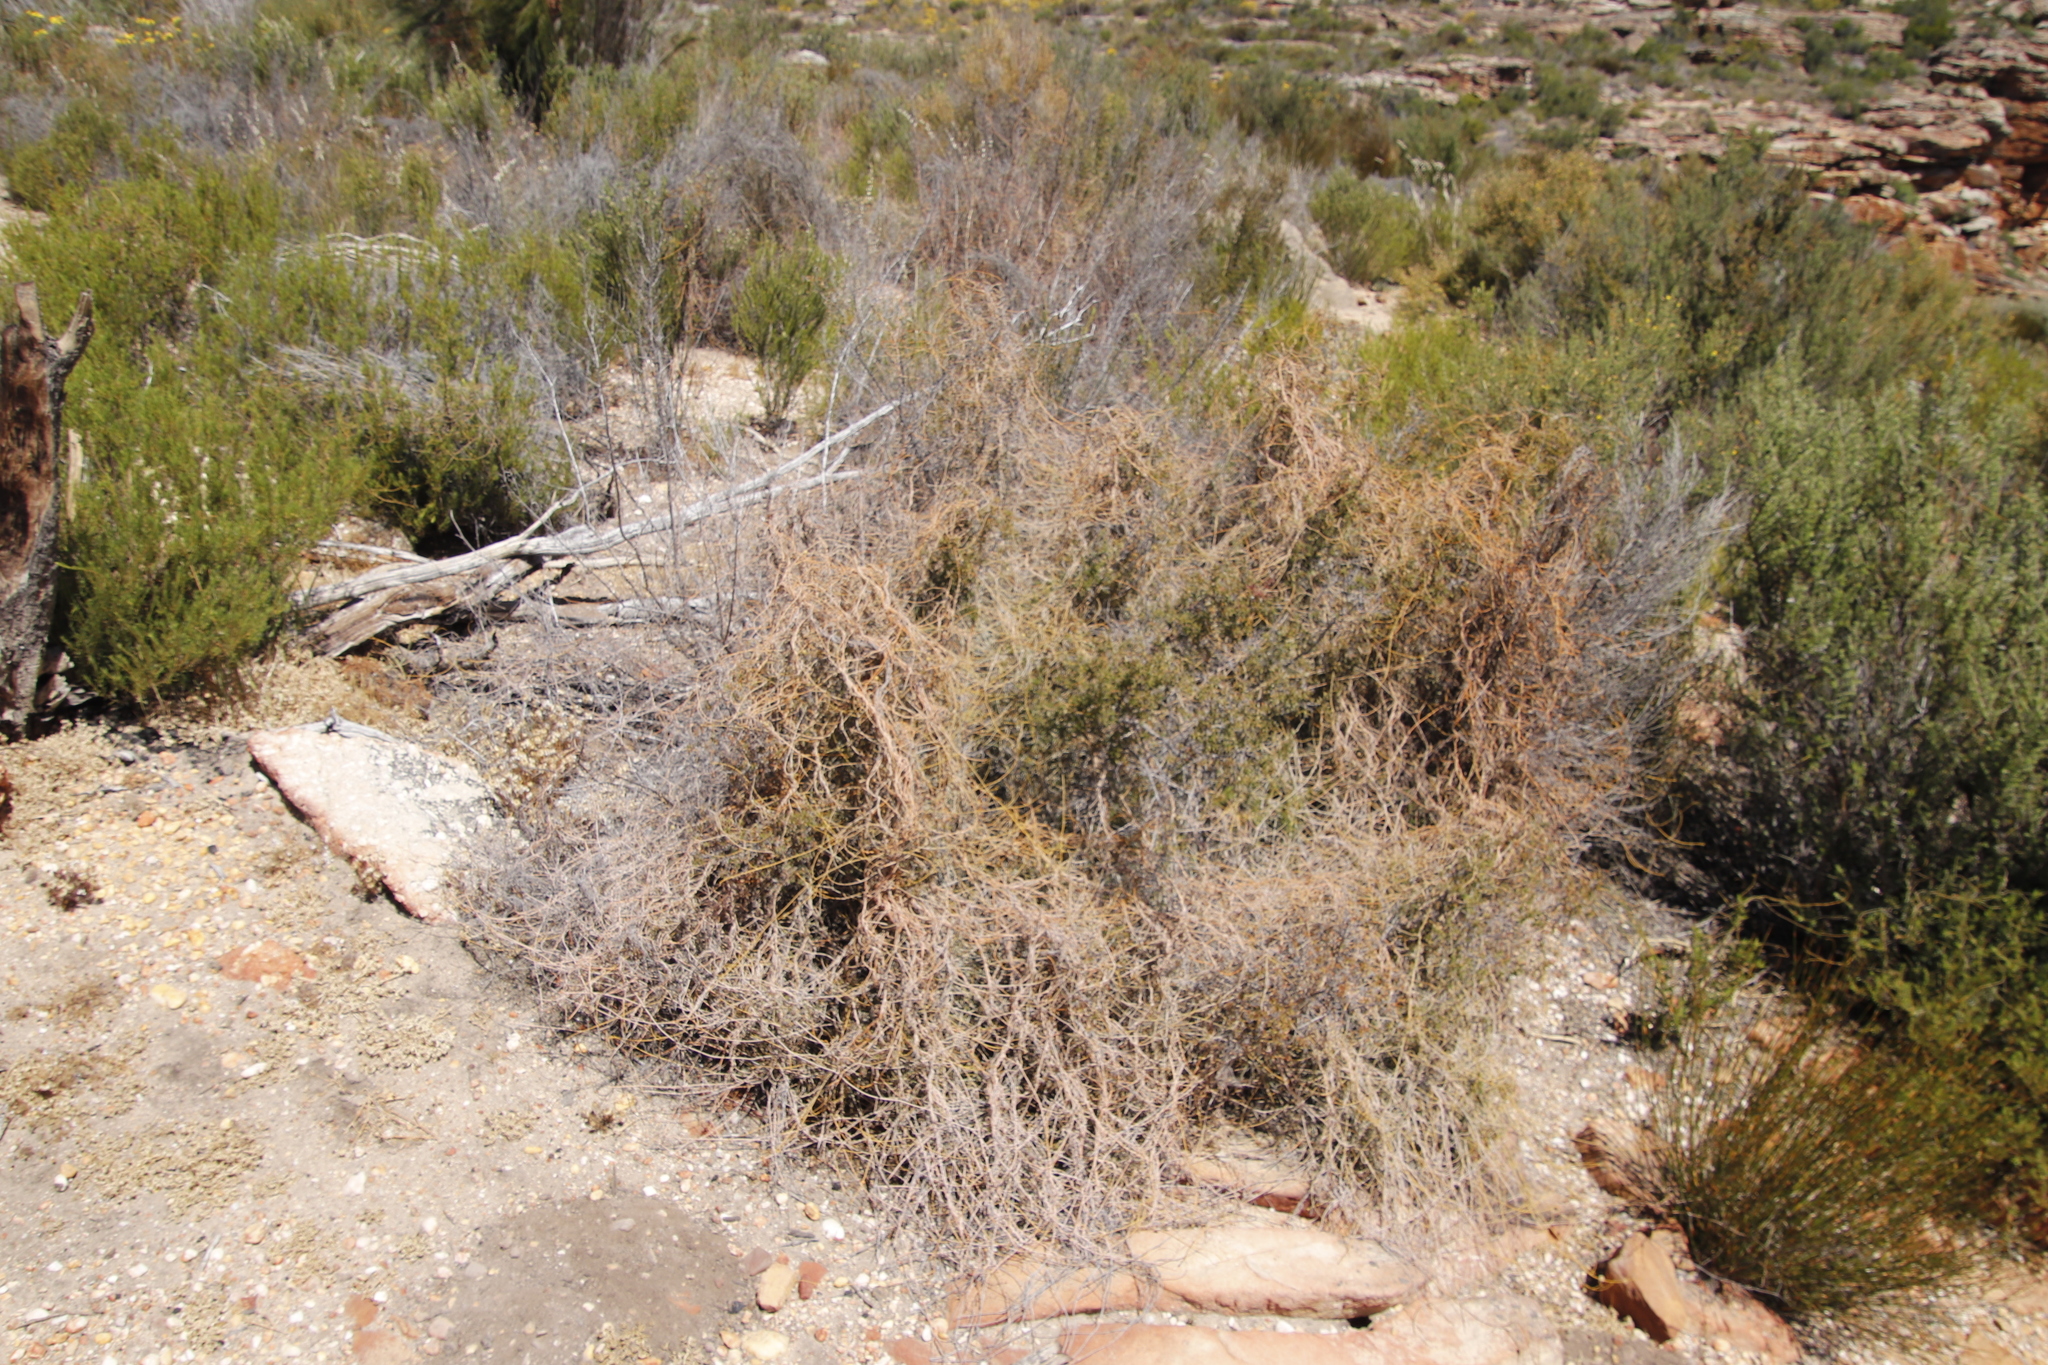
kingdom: Plantae
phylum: Tracheophyta
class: Magnoliopsida
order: Laurales
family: Lauraceae
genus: Cassytha
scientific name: Cassytha ciliolata
